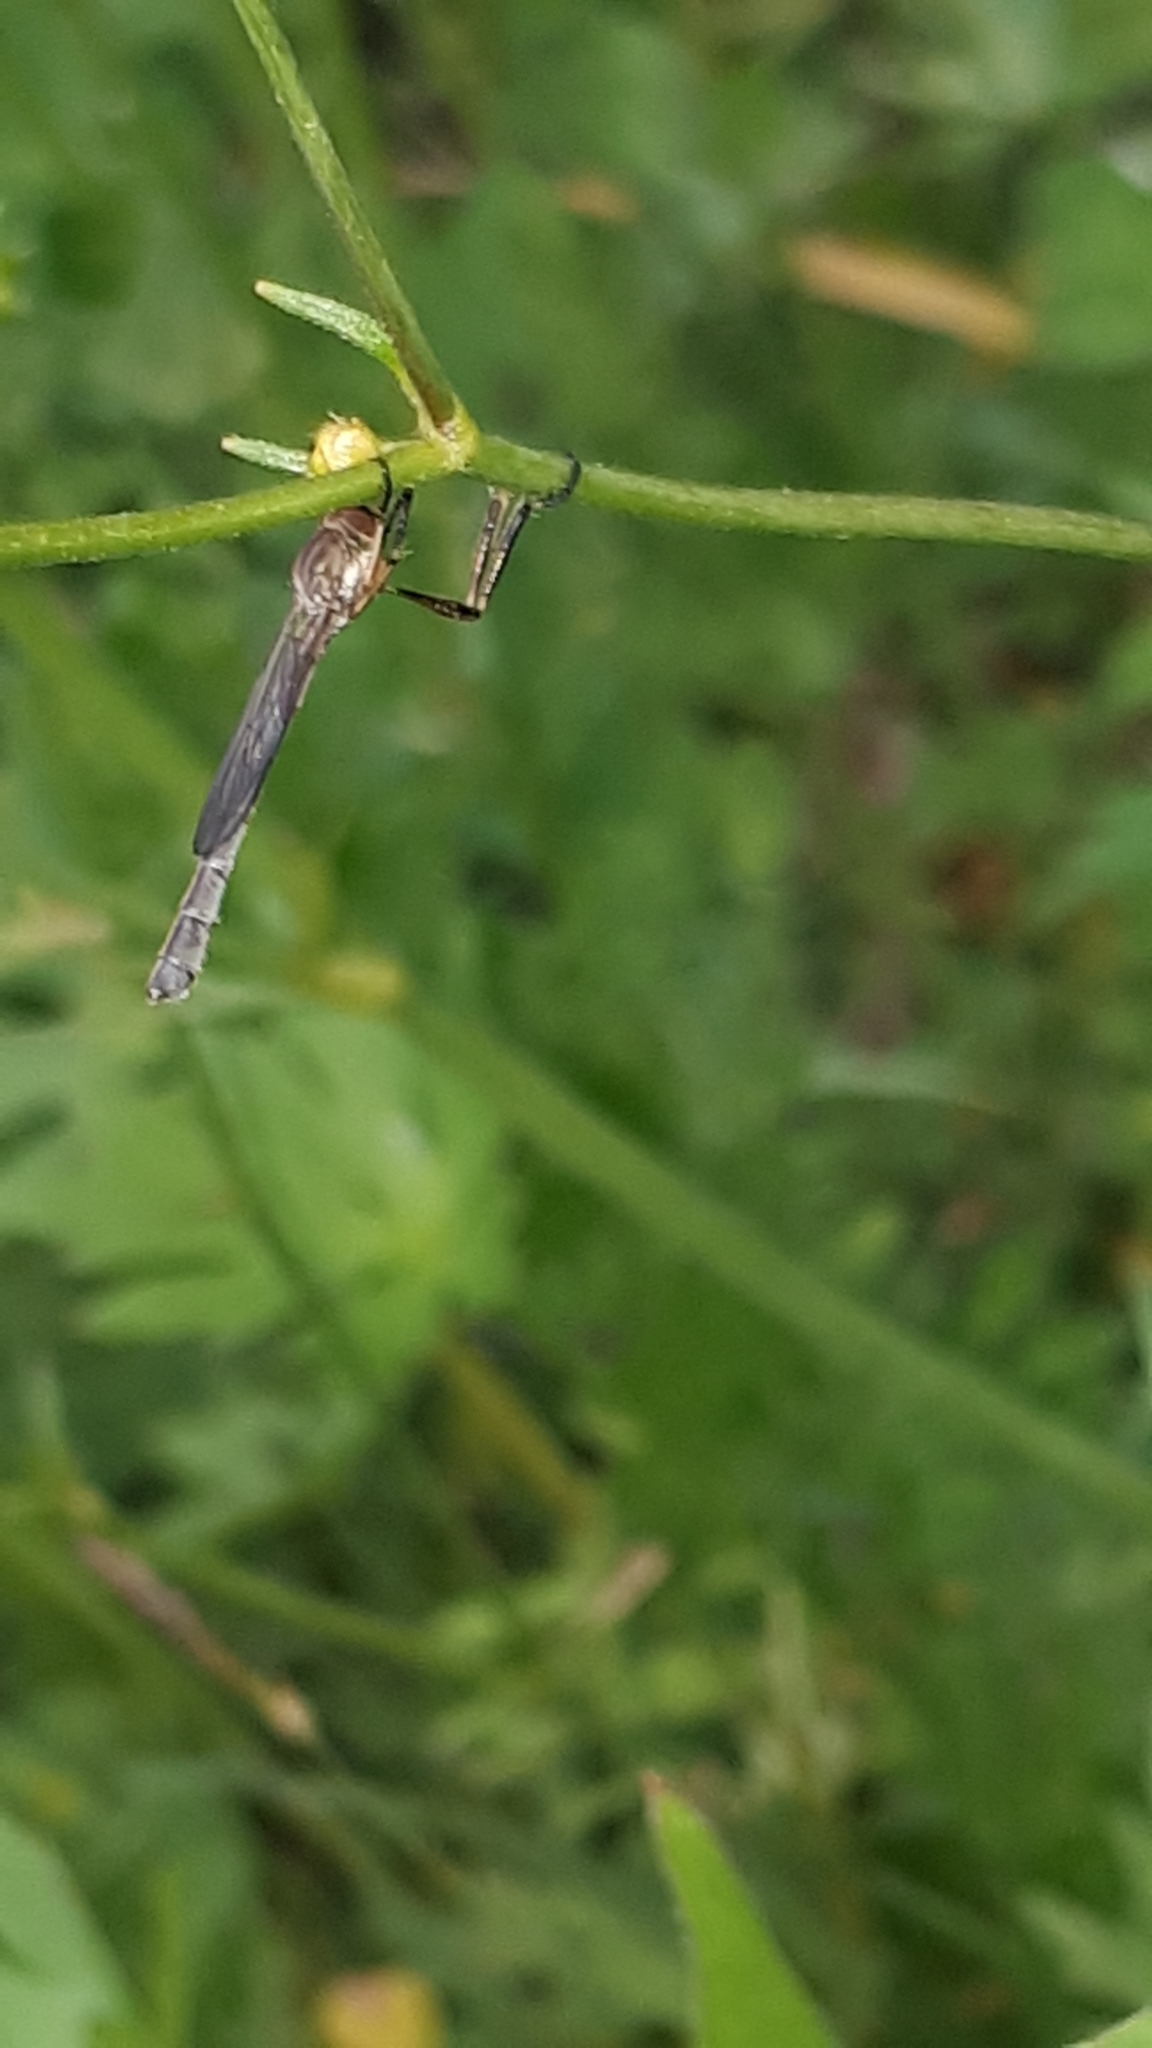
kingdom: Animalia
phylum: Arthropoda
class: Insecta
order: Diptera
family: Asilidae
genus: Leptogaster
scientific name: Leptogaster cylindrica
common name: Striped slender robberfly
